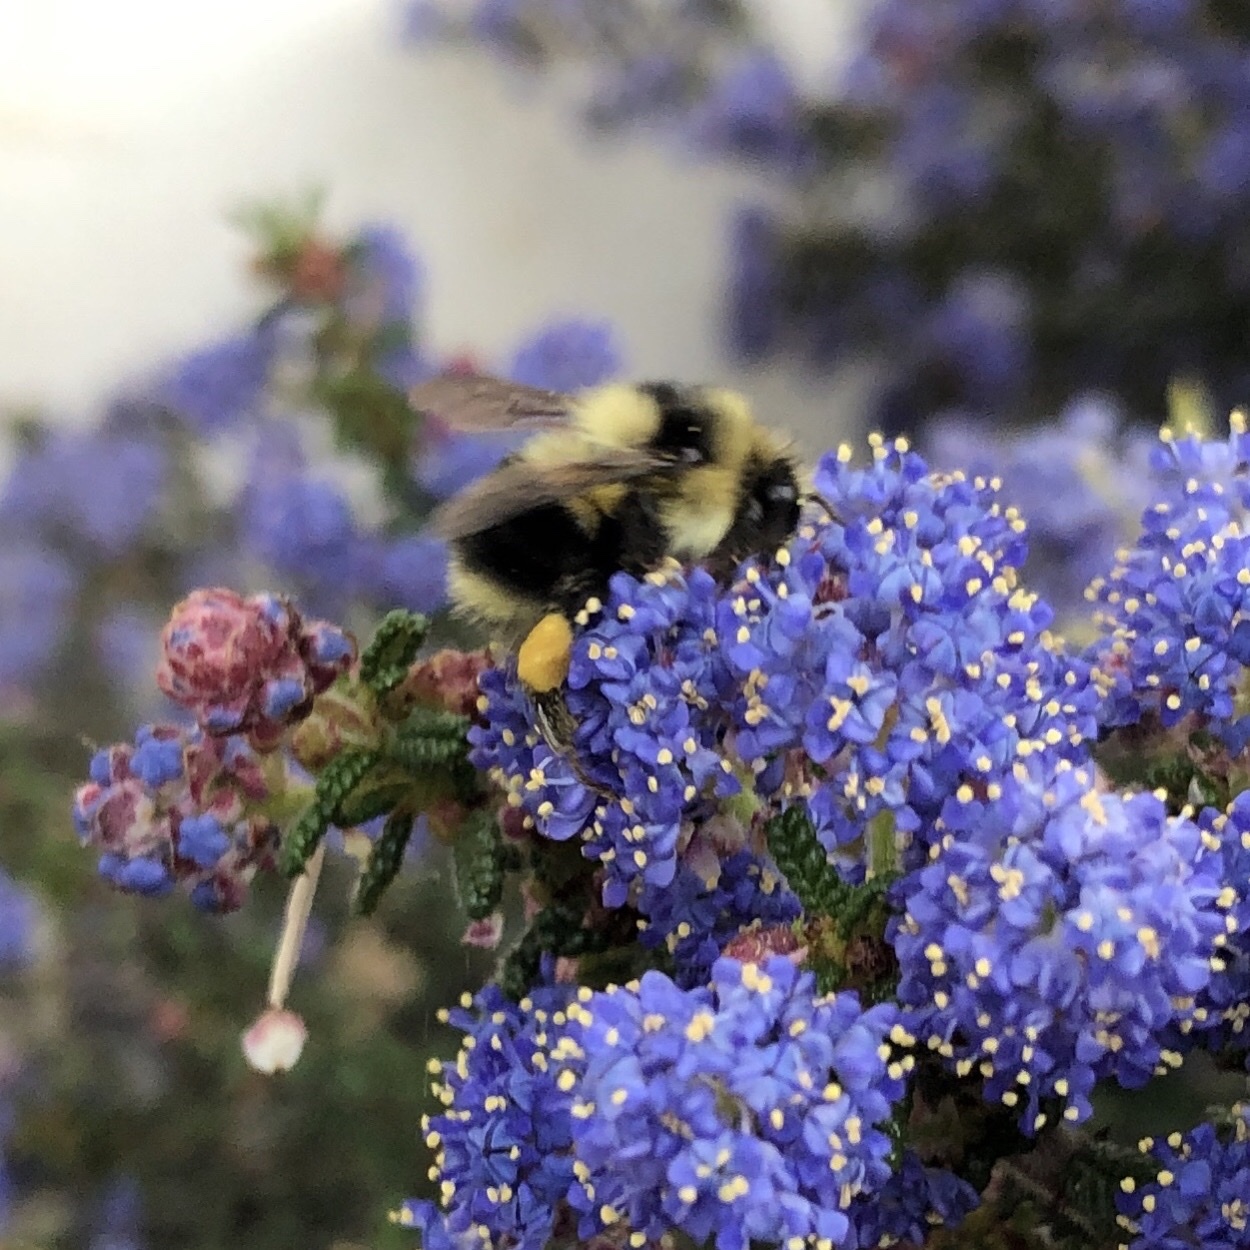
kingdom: Animalia
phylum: Arthropoda
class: Insecta
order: Hymenoptera
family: Apidae
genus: Bombus
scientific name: Bombus melanopygus
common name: Black tail bumble bee
